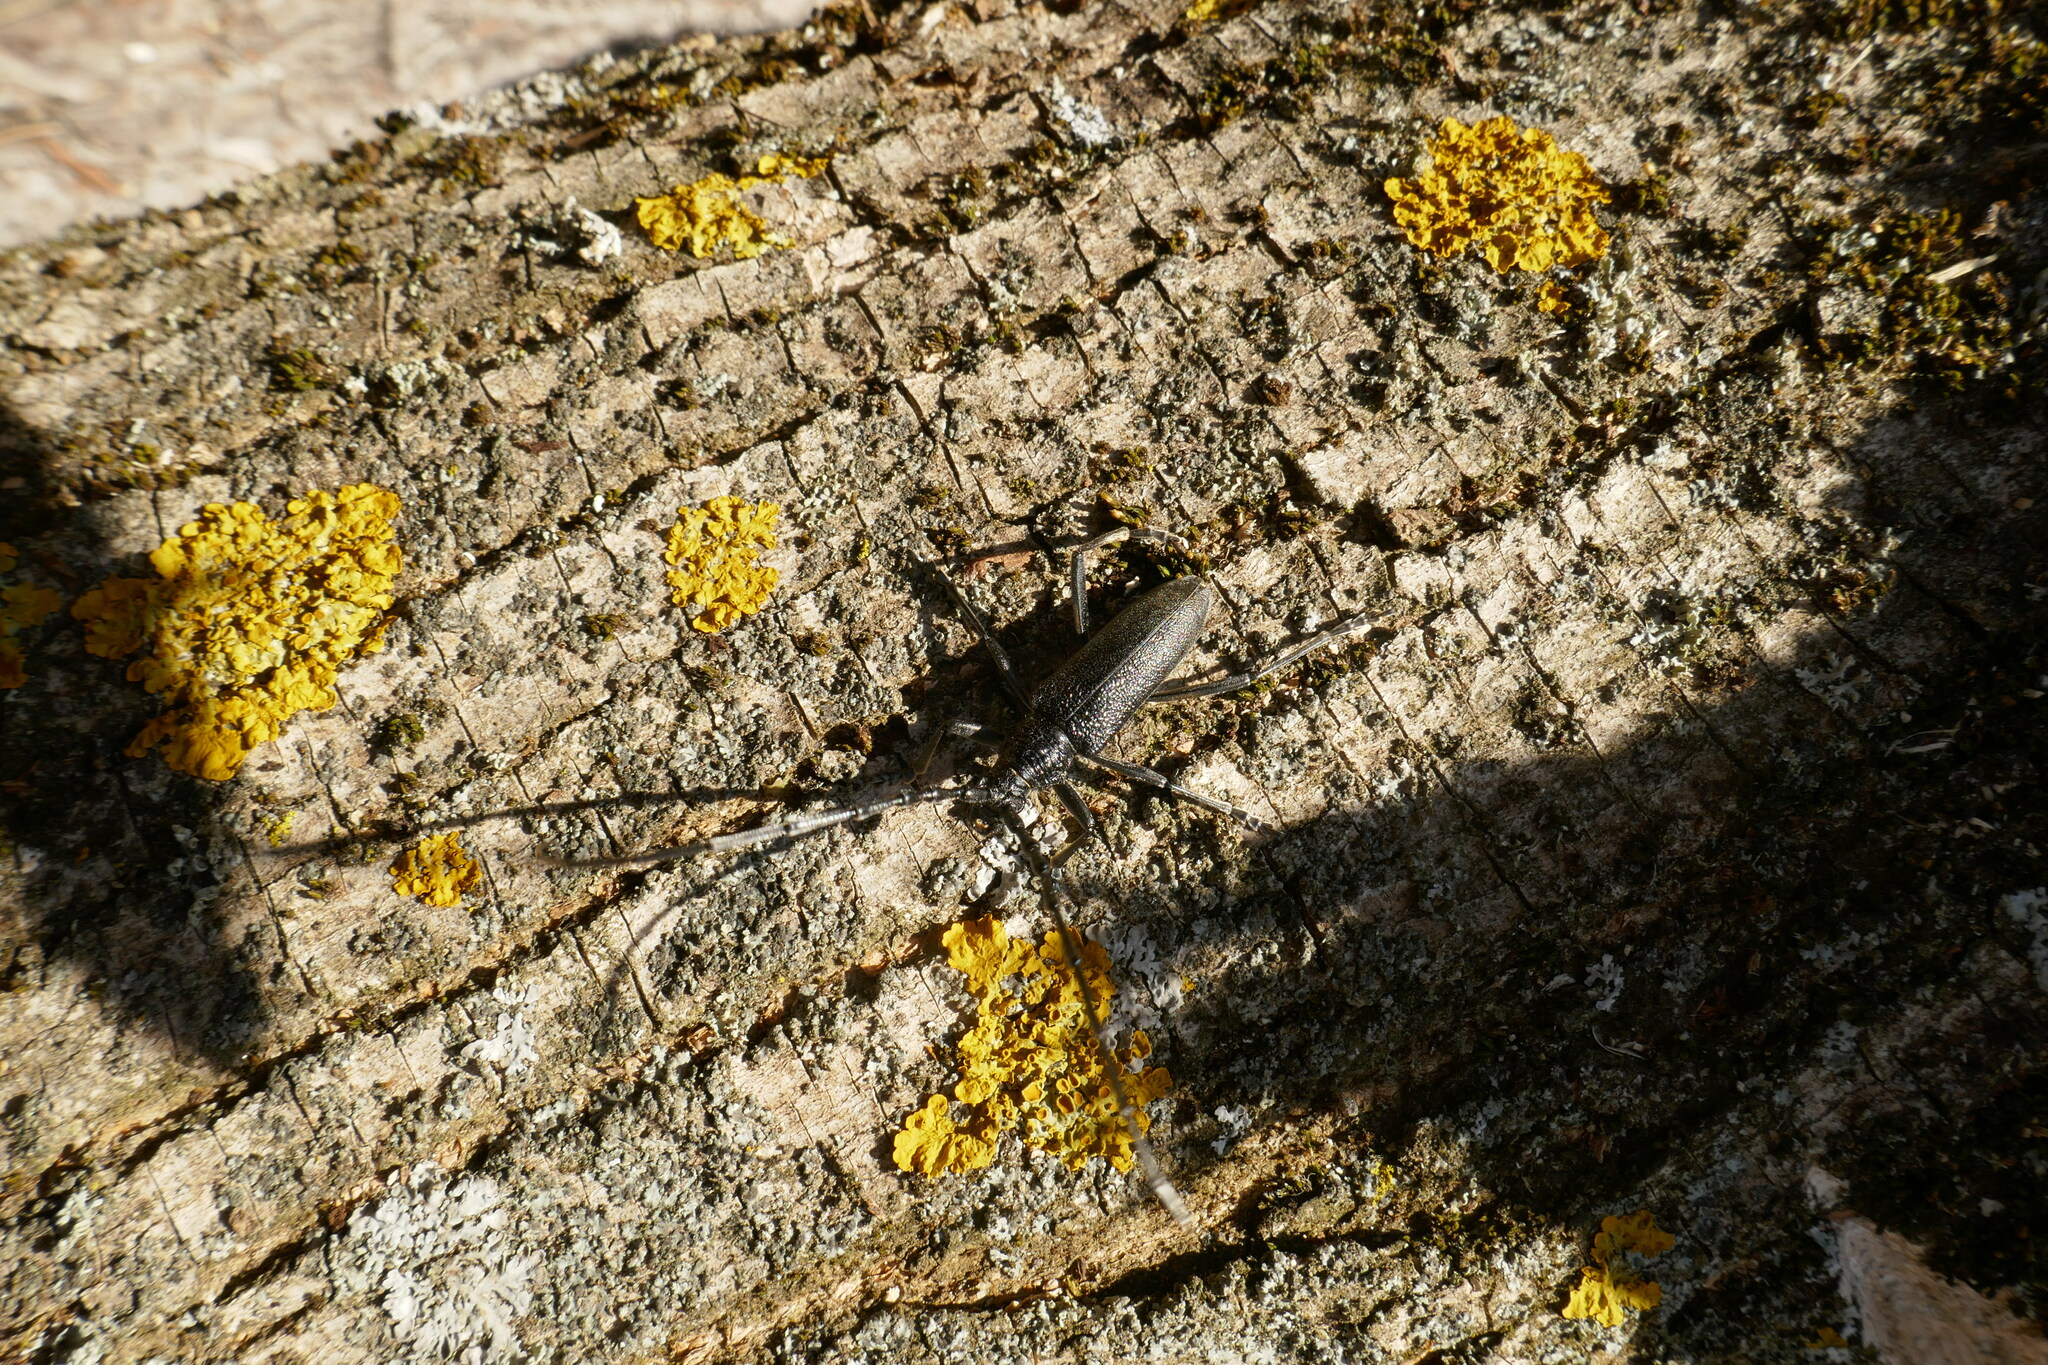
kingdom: Animalia
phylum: Arthropoda
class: Insecta
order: Coleoptera
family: Cerambycidae
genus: Cerambyx
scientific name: Cerambyx scopolii
